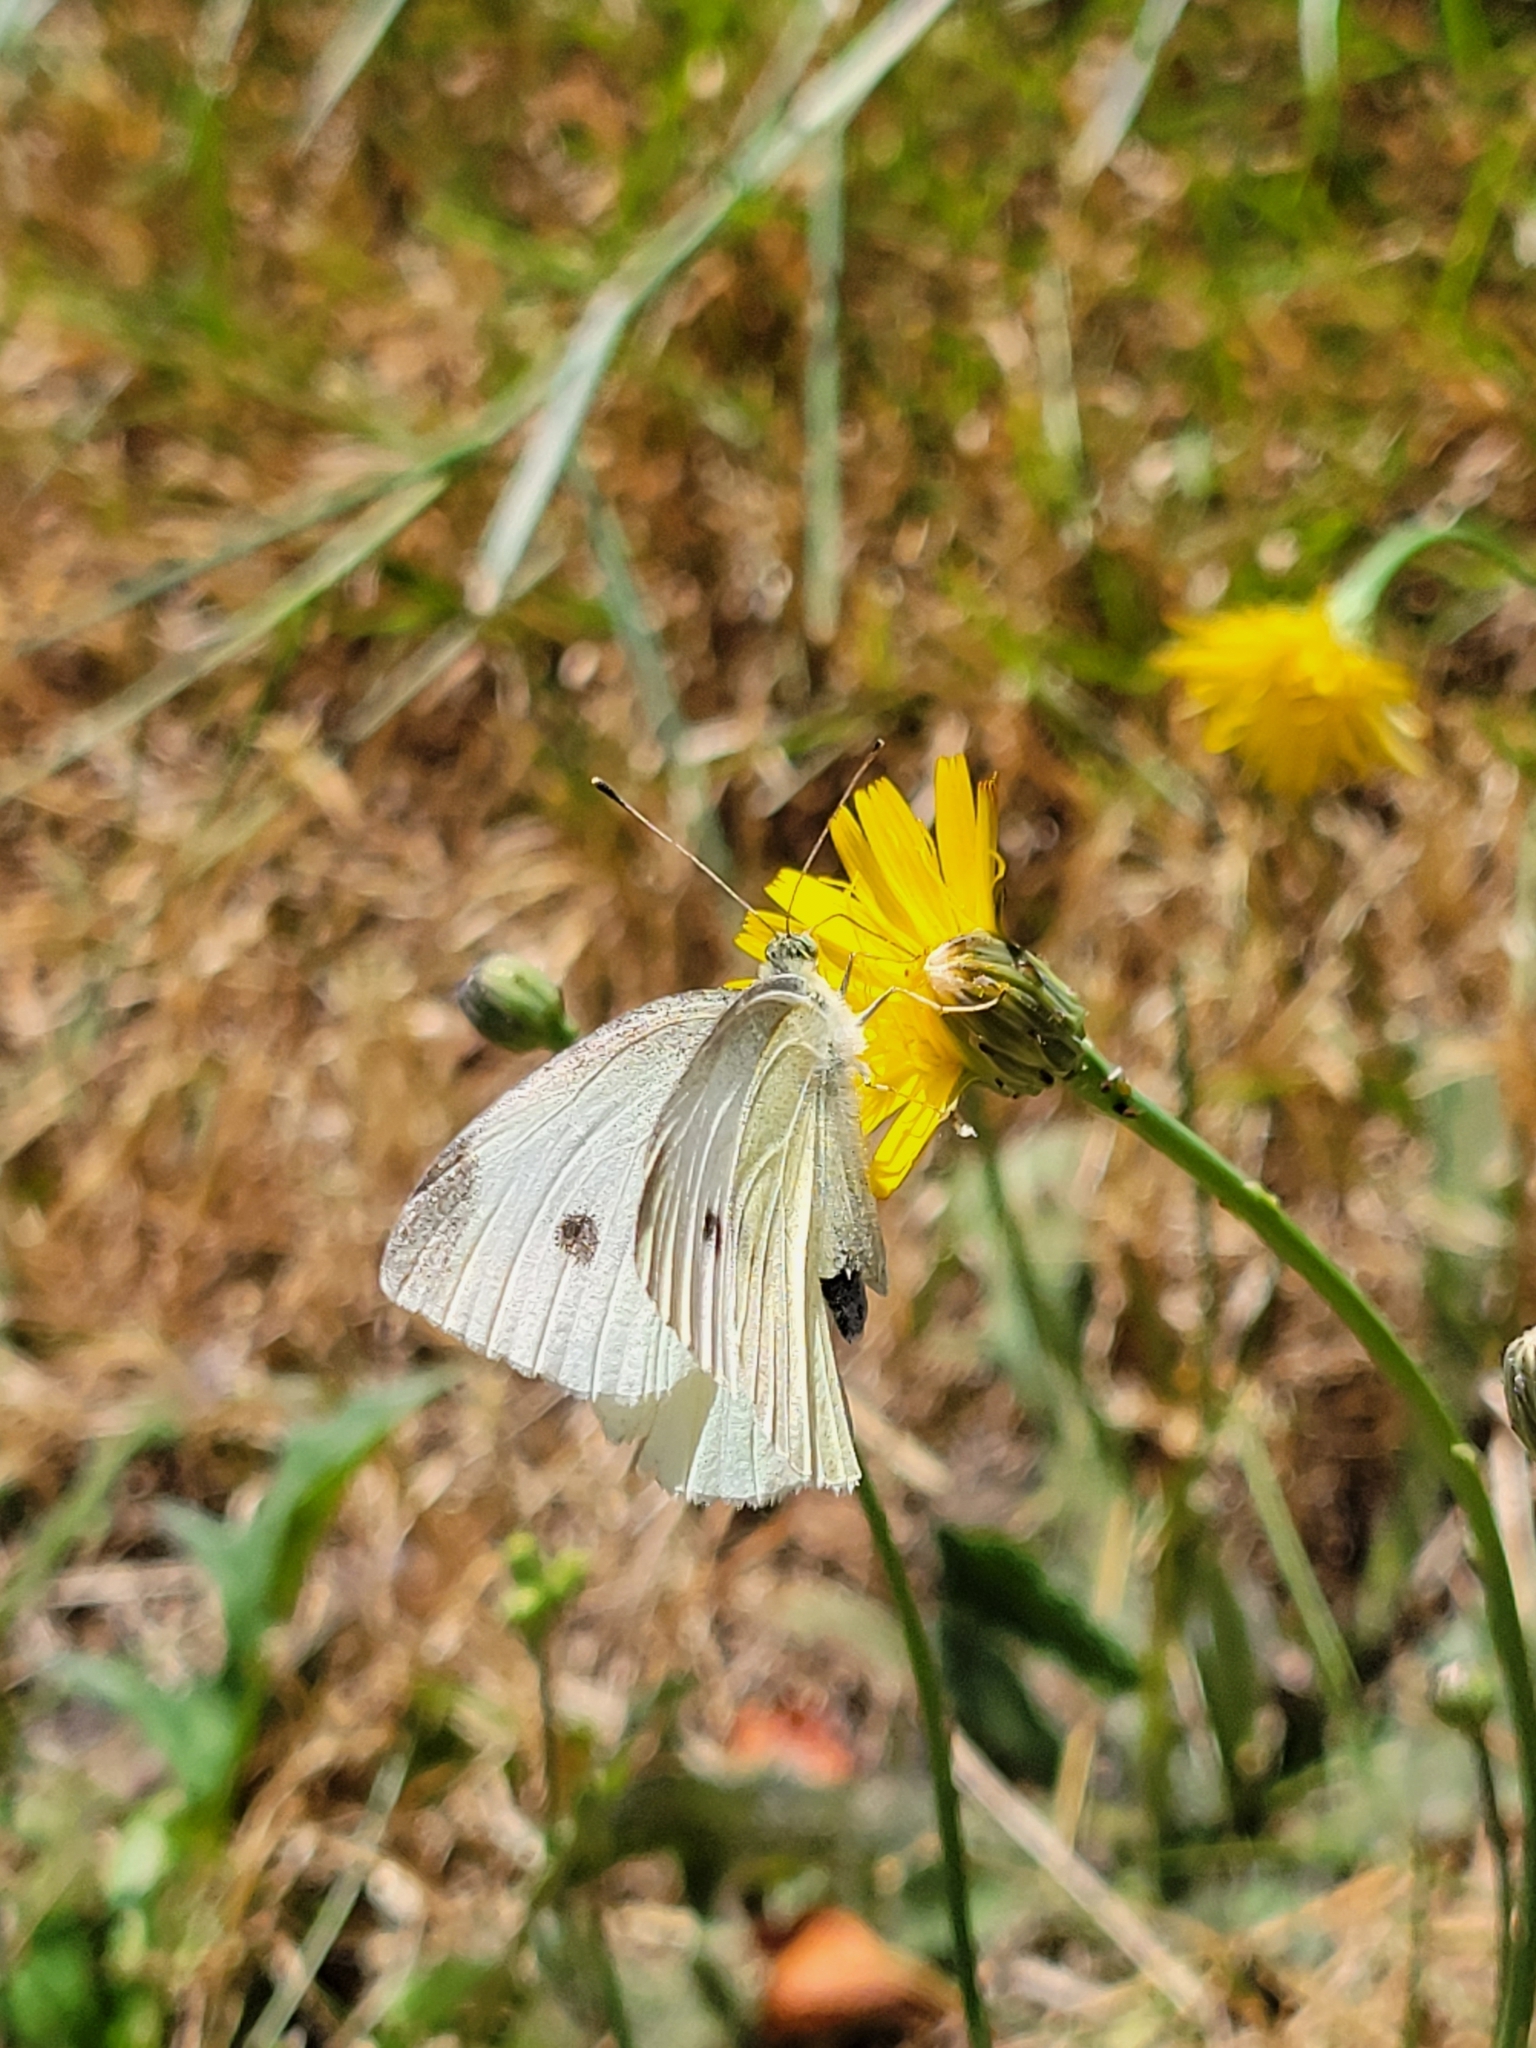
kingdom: Animalia
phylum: Arthropoda
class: Insecta
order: Lepidoptera
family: Pieridae
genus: Pieris
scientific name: Pieris rapae
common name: Small white
